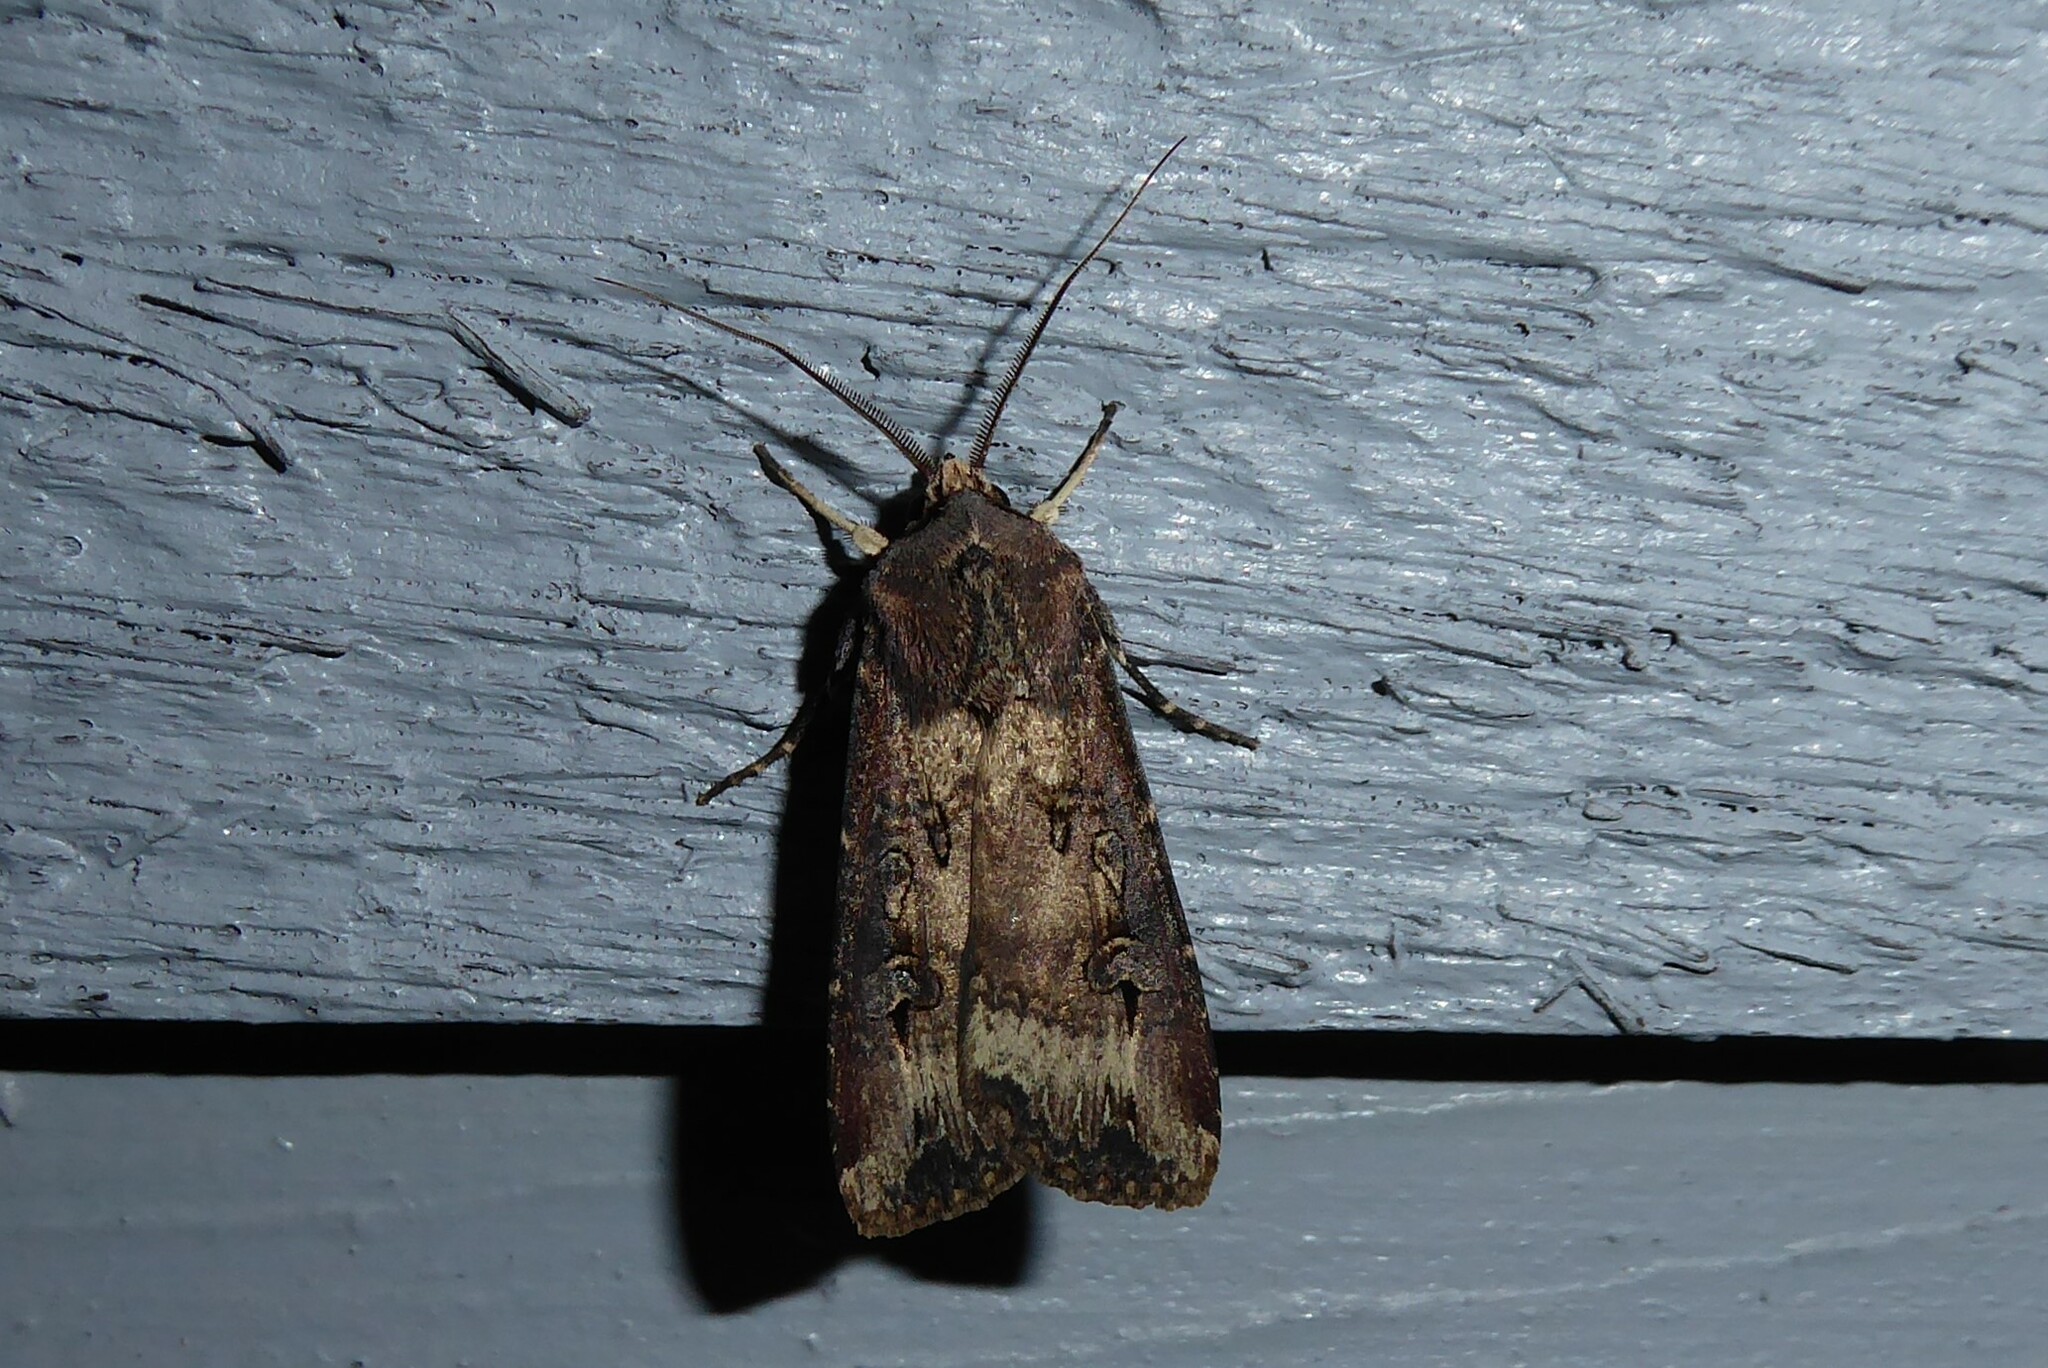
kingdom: Animalia
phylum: Arthropoda
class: Insecta
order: Lepidoptera
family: Noctuidae
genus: Agrotis
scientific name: Agrotis ipsilon
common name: Dark sword-grass
